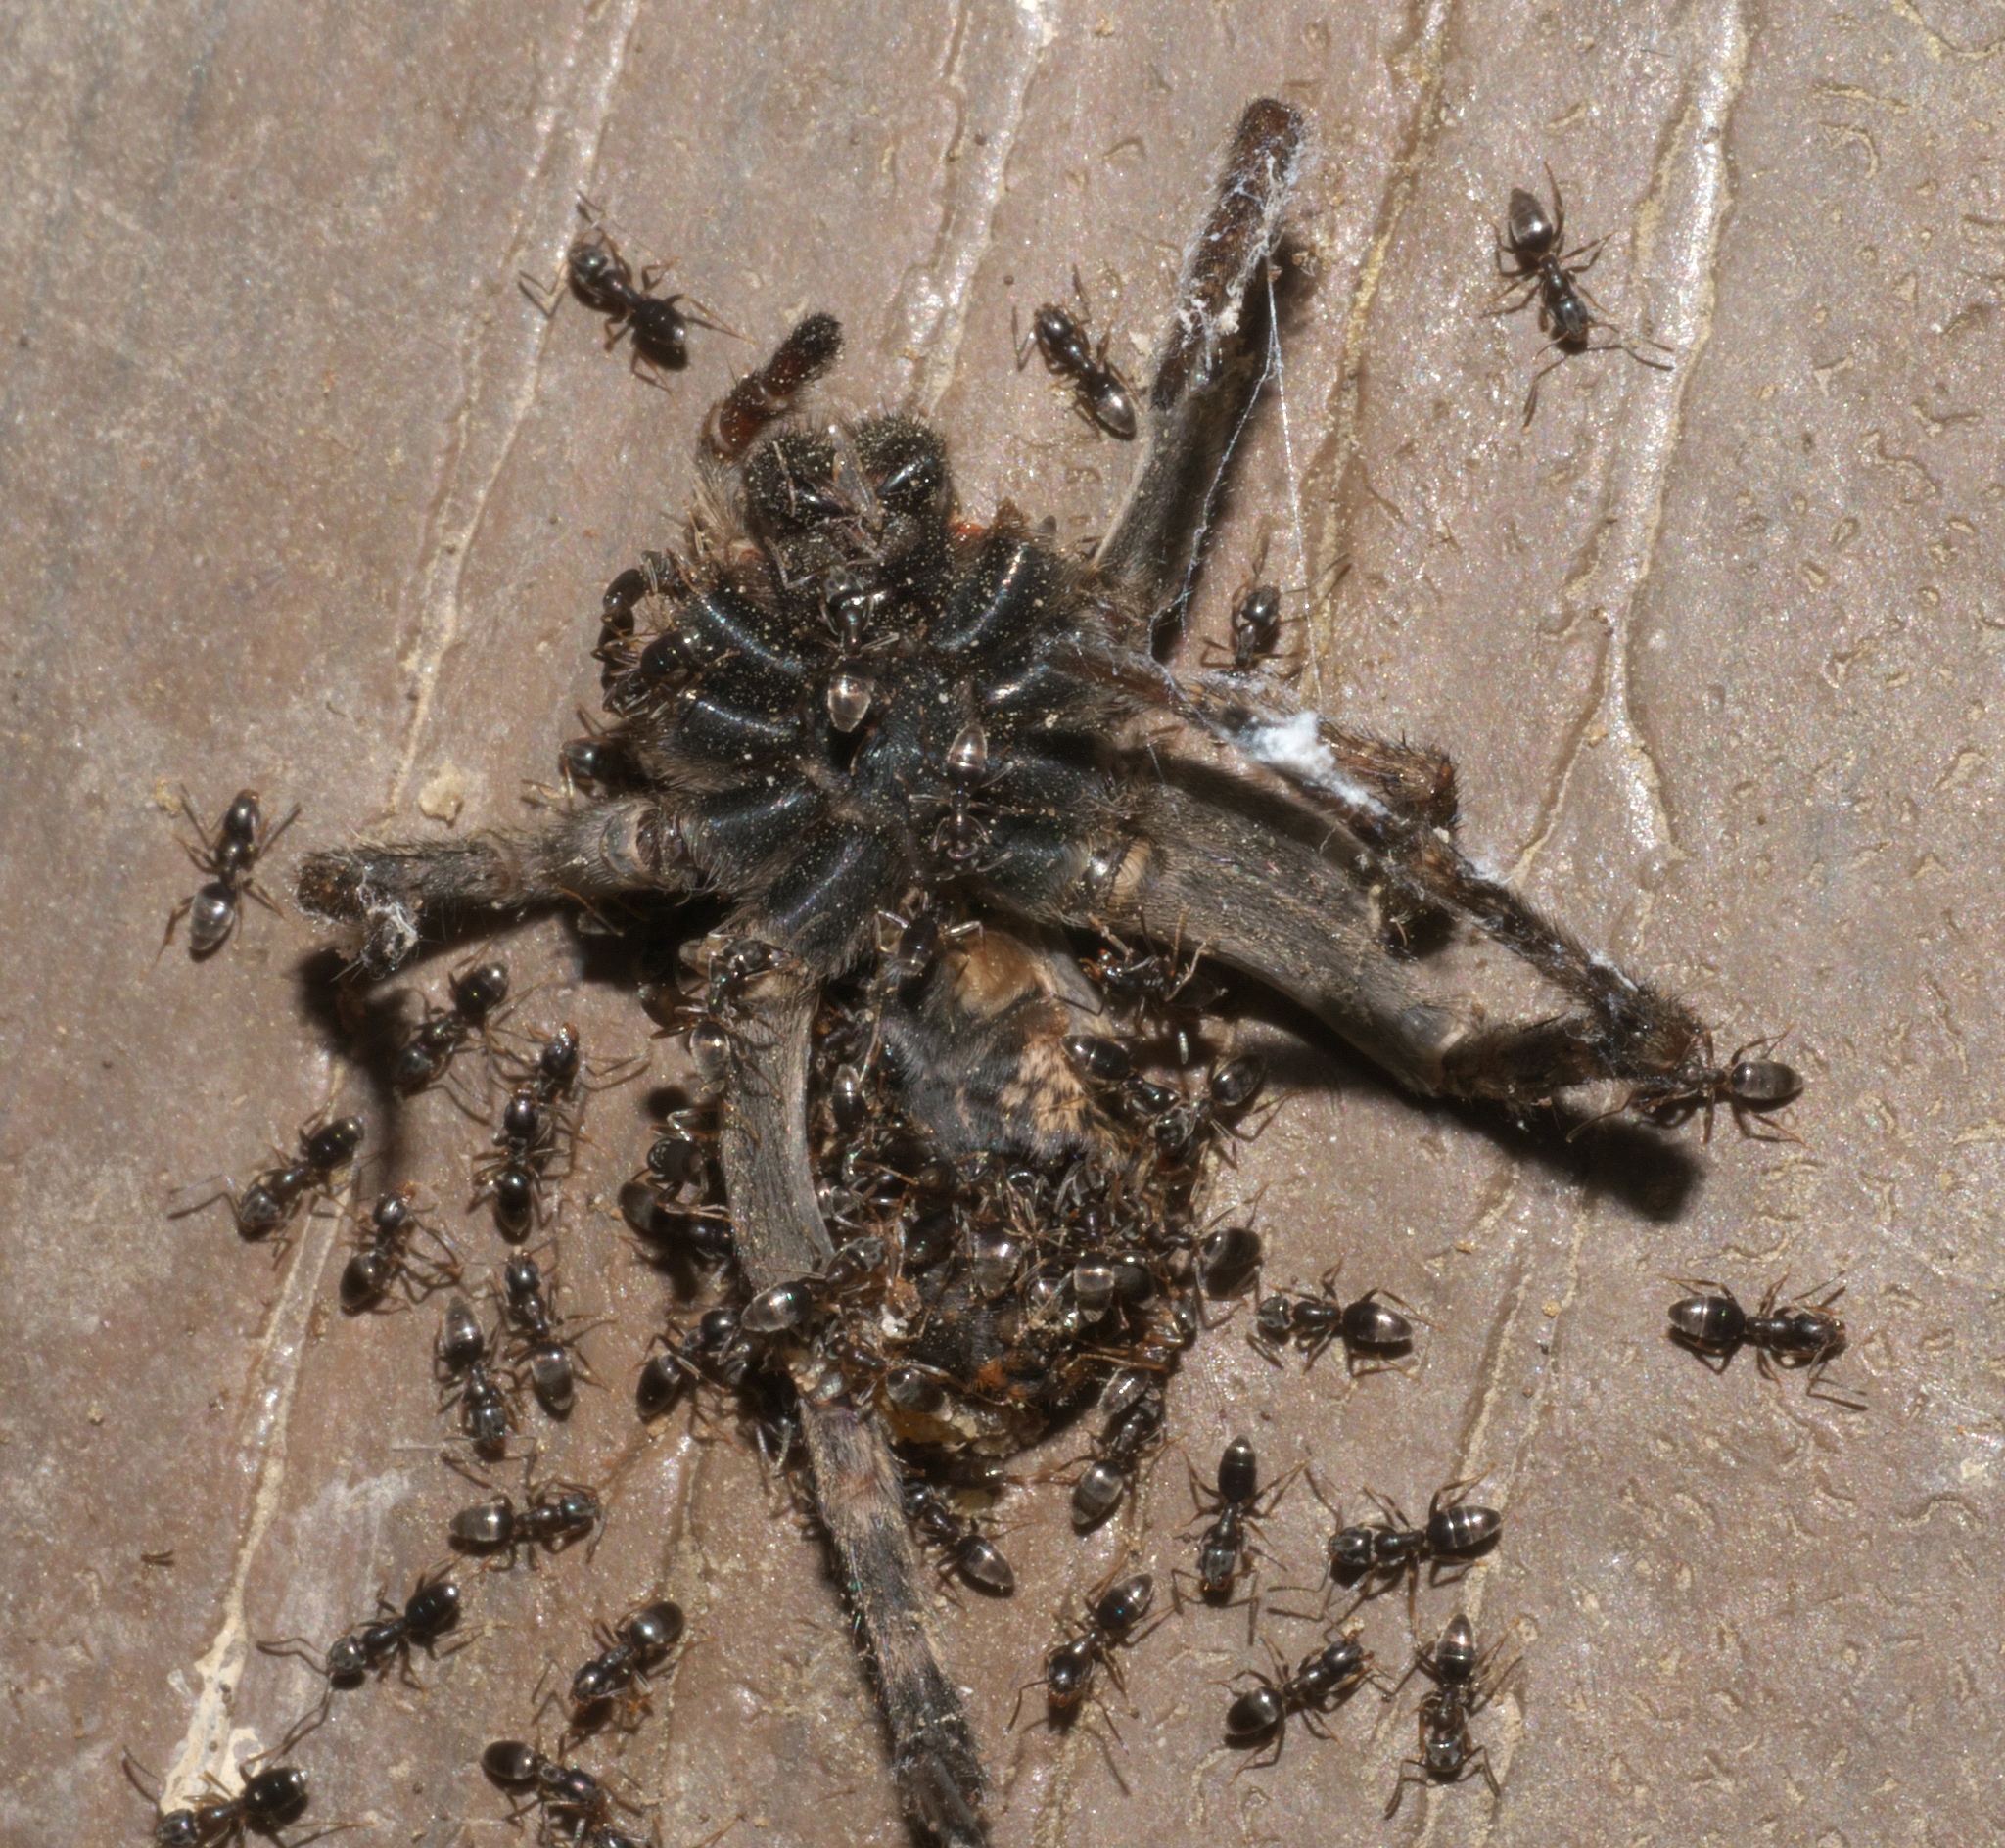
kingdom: Animalia
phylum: Arthropoda
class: Insecta
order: Hymenoptera
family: Formicidae
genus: Tapinoma
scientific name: Tapinoma sessile
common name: Odorous house ant
